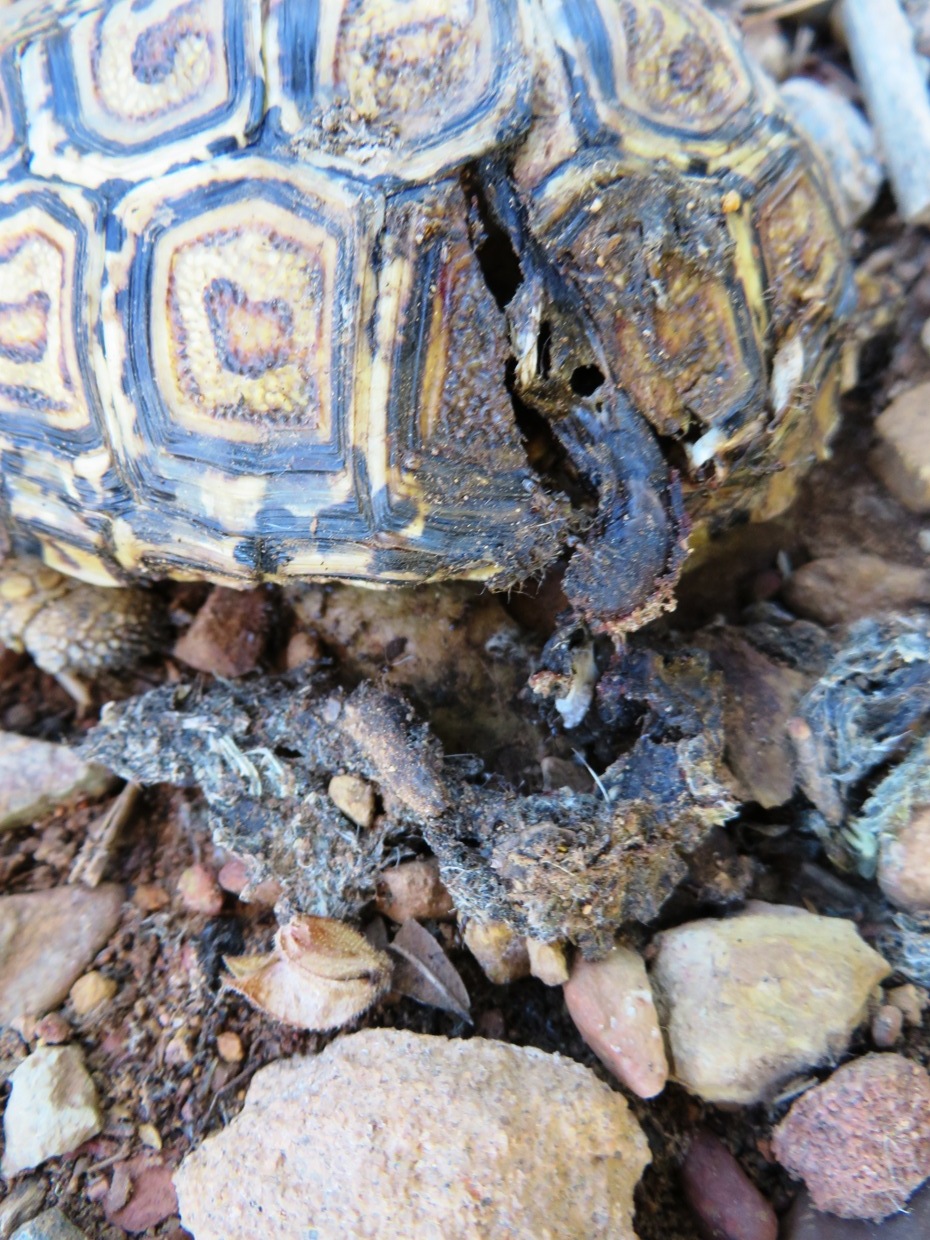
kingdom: Animalia
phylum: Chordata
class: Testudines
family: Testudinidae
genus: Stigmochelys
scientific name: Stigmochelys pardalis
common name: Leopard tortoise
